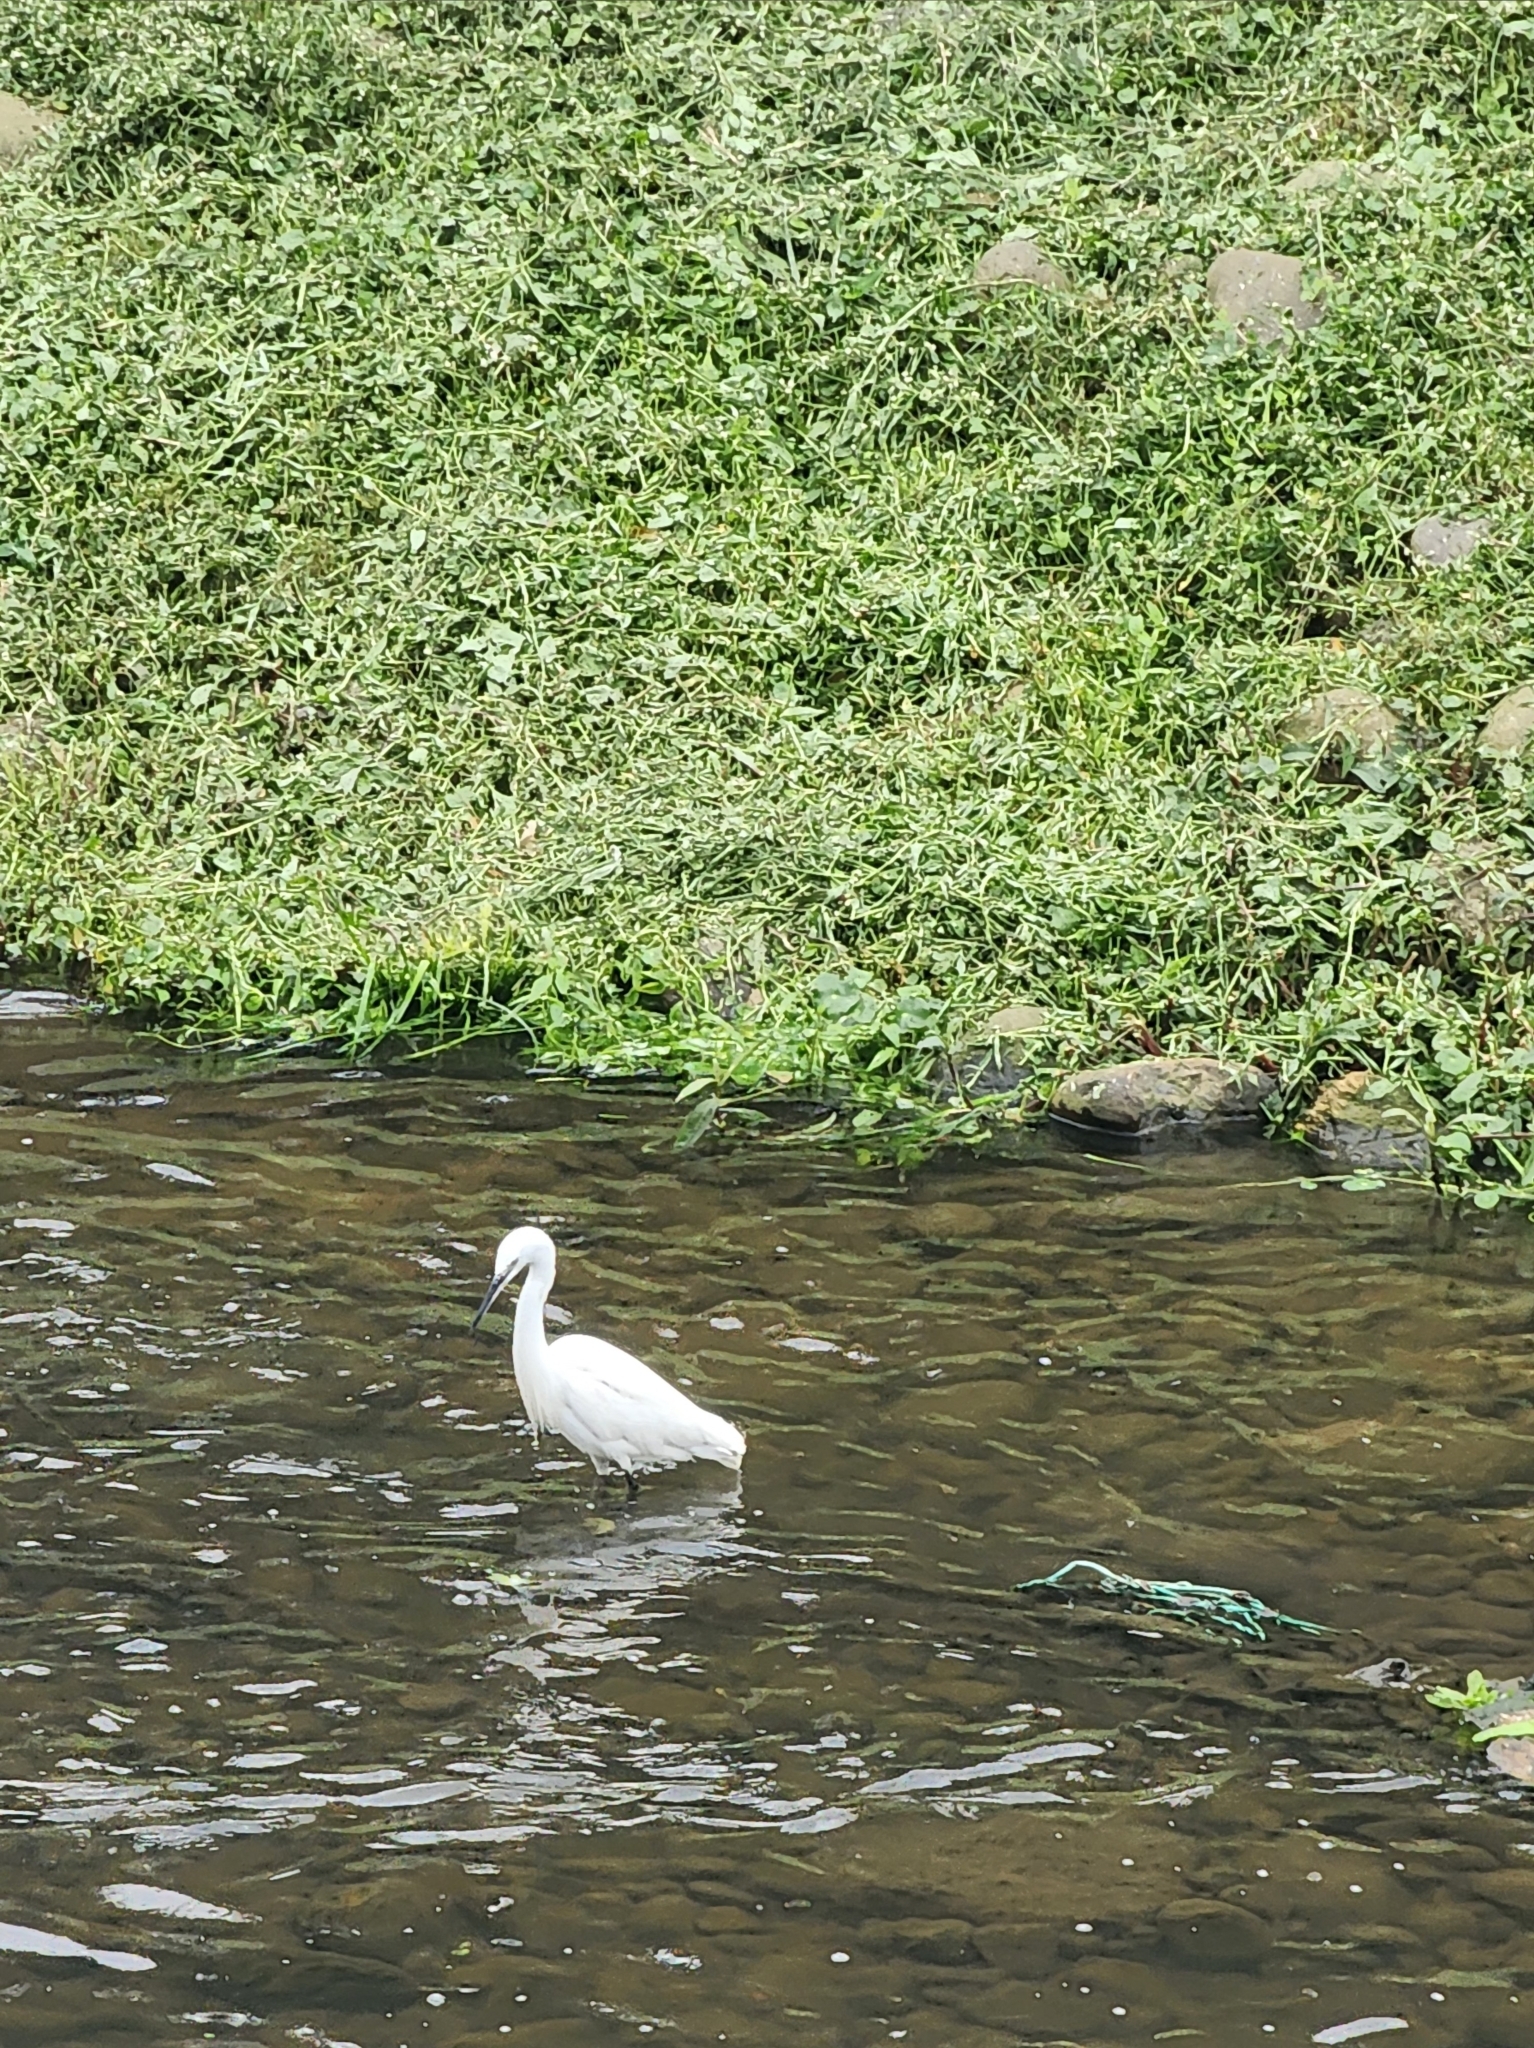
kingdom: Animalia
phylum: Chordata
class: Aves
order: Pelecaniformes
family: Ardeidae
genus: Egretta
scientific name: Egretta garzetta
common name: Little egret
